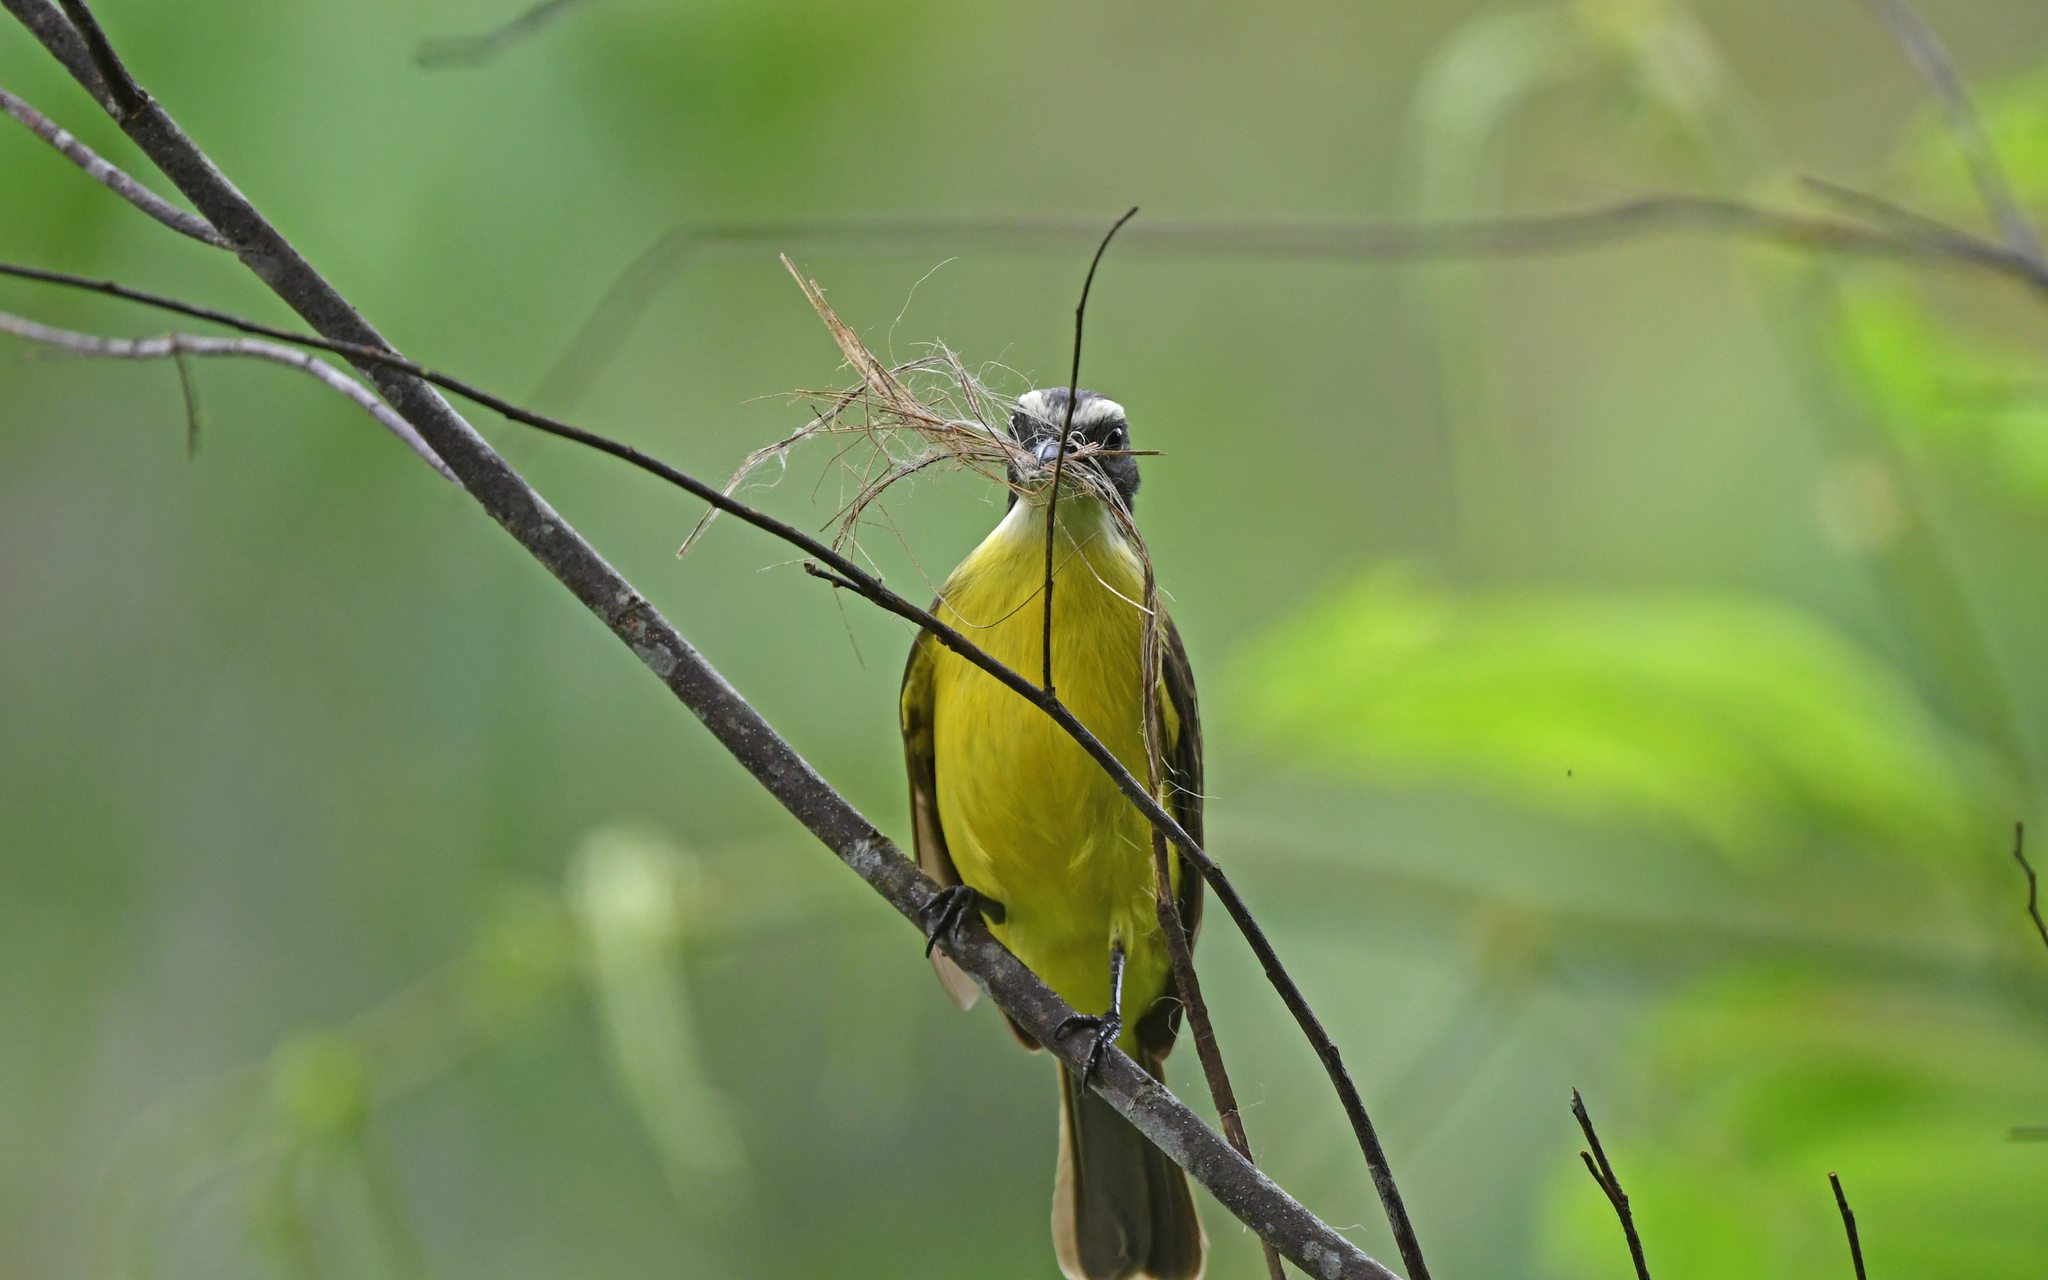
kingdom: Animalia
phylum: Chordata
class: Aves
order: Passeriformes
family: Tyrannidae
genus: Myiozetetes
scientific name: Myiozetetes similis
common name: Social flycatcher
